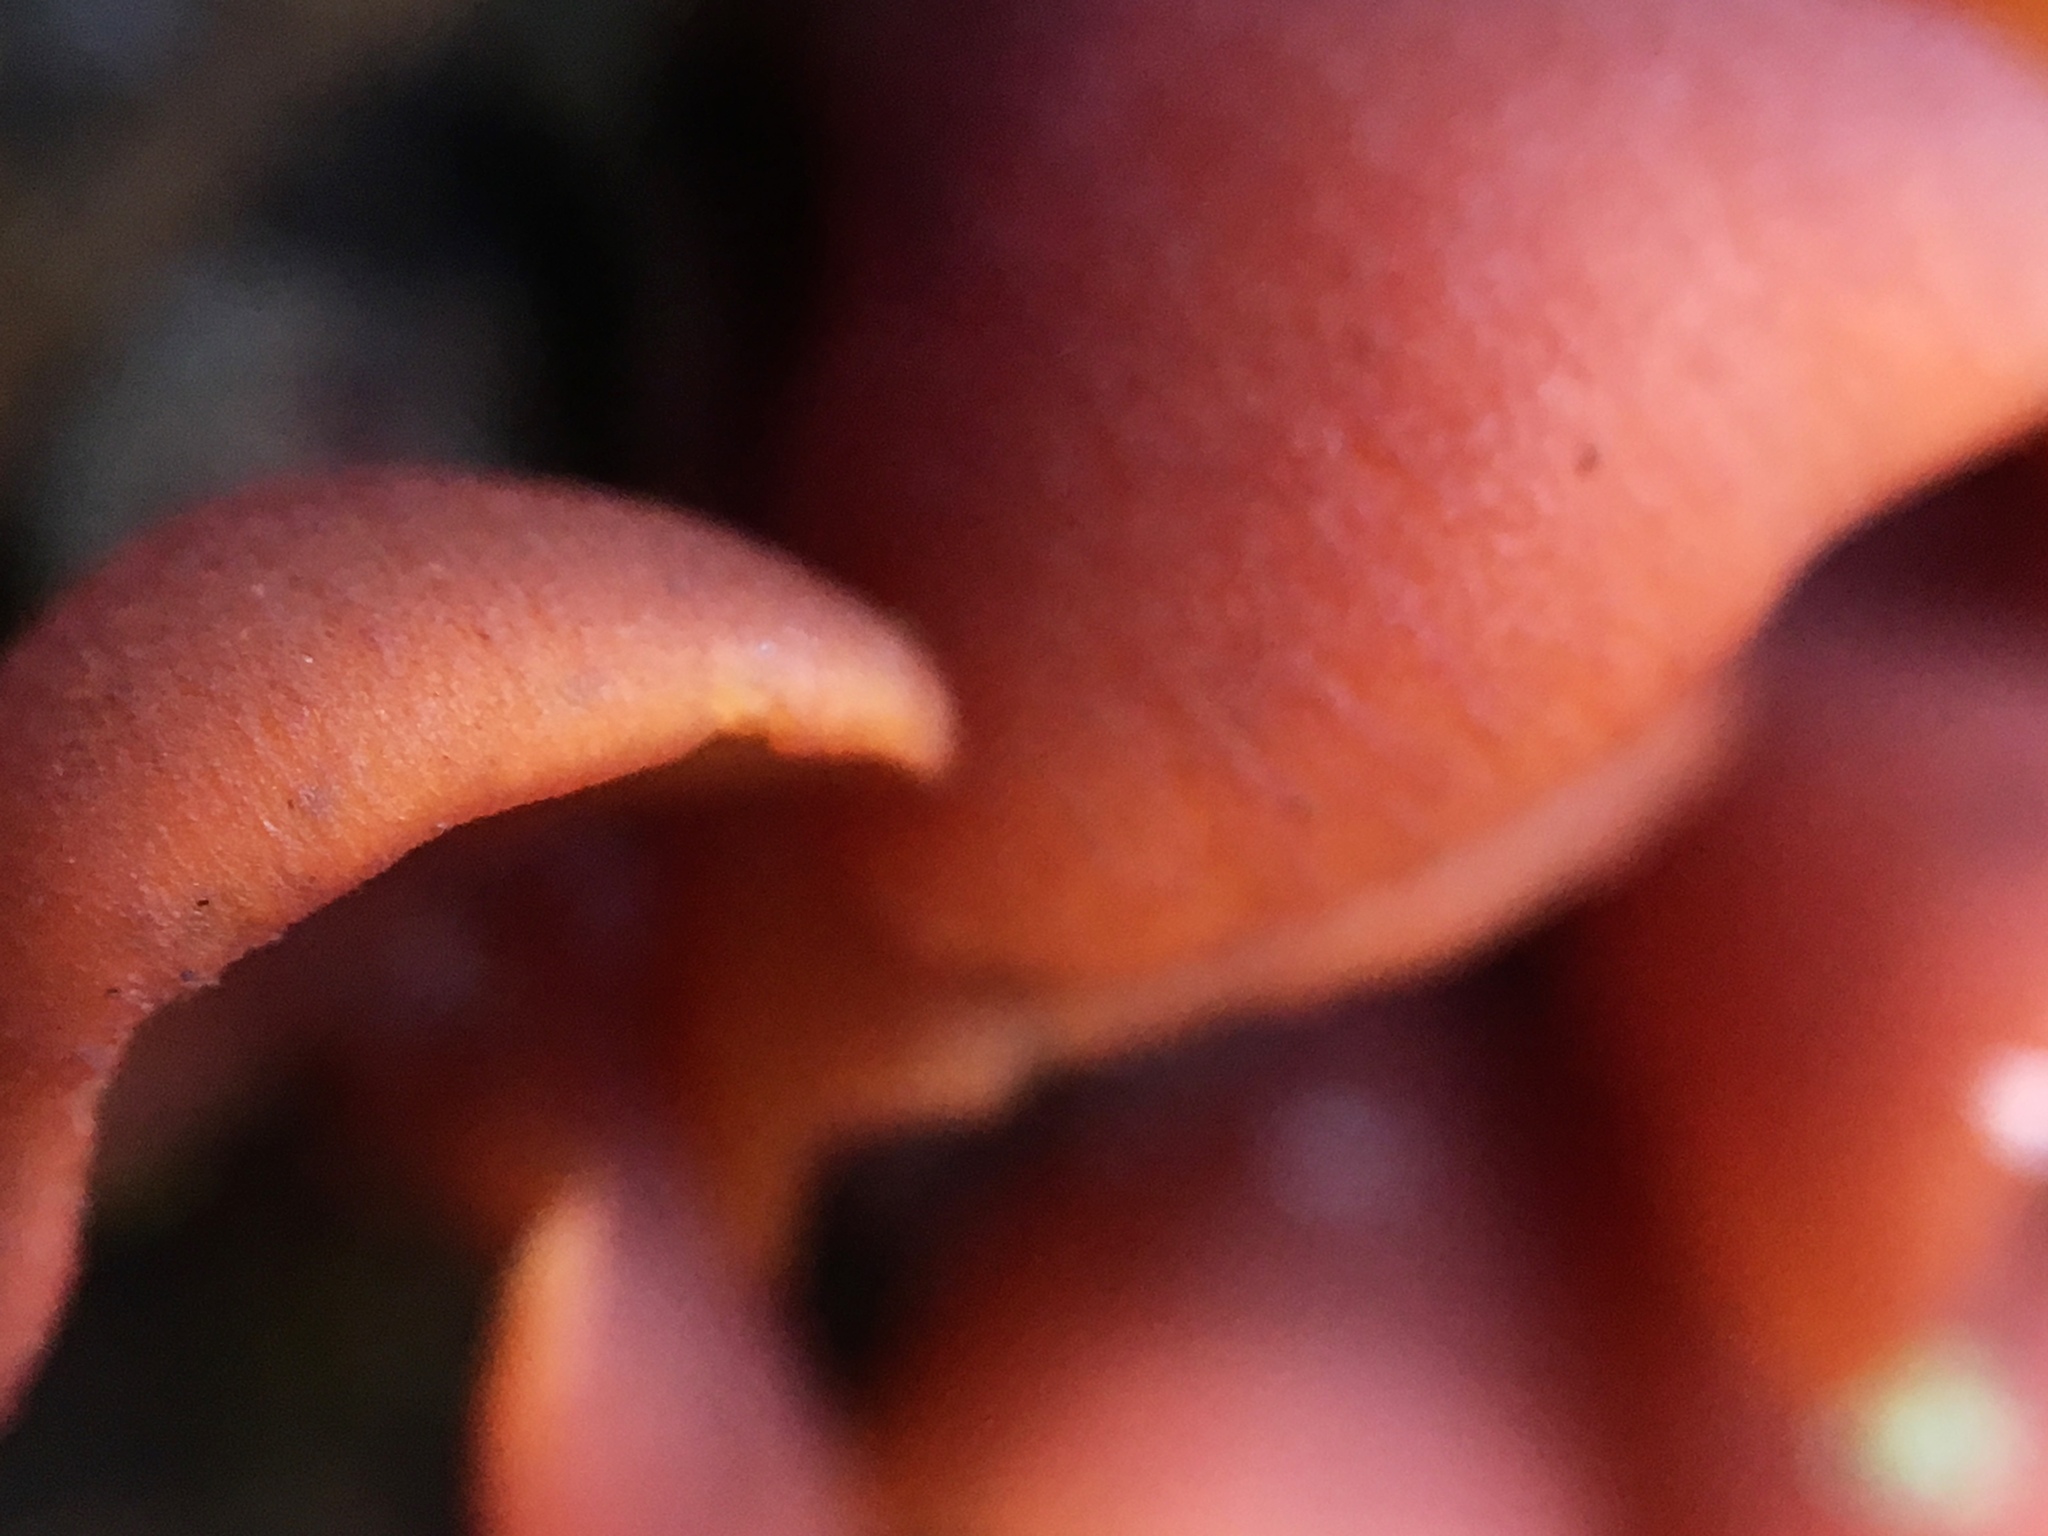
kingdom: Fungi
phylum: Basidiomycota
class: Dacrymycetes
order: Dacrymycetales
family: Dacrymycetaceae
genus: Dacryopinax
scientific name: Dacryopinax elegans
